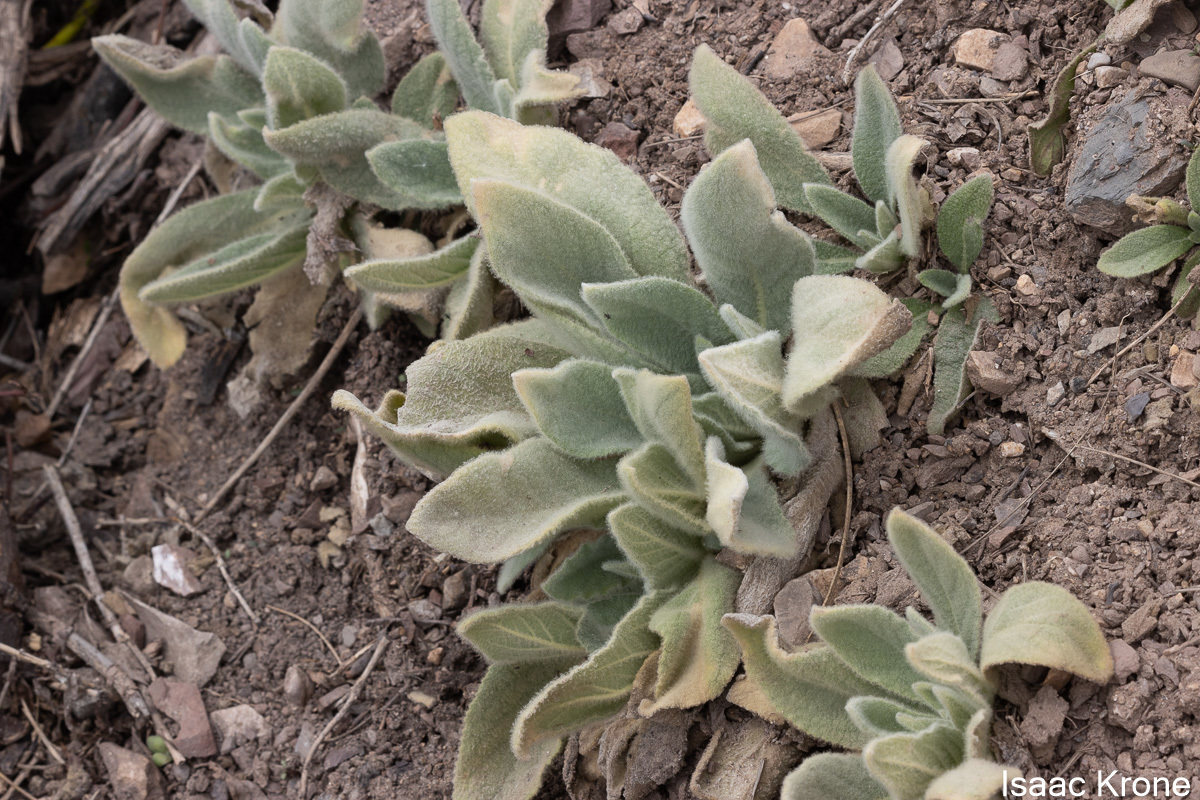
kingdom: Plantae
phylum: Tracheophyta
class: Magnoliopsida
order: Lamiales
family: Scrophulariaceae
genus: Verbascum
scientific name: Verbascum thapsus
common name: Common mullein
